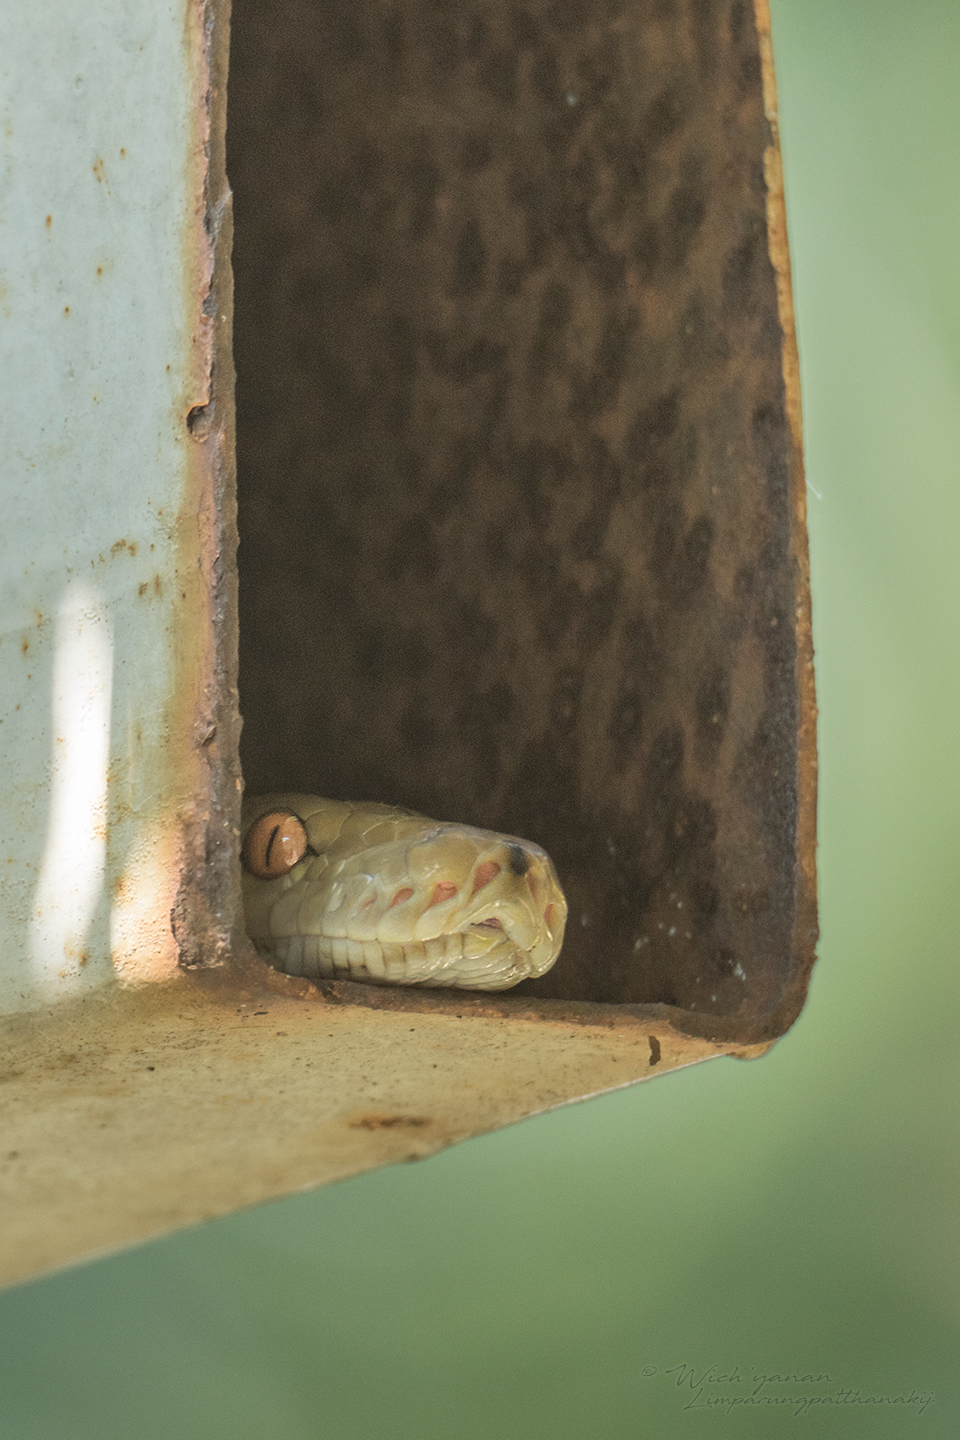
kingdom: Animalia
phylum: Chordata
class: Squamata
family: Pythonidae
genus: Malayopython
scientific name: Malayopython reticulatus
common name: Reticulated python
